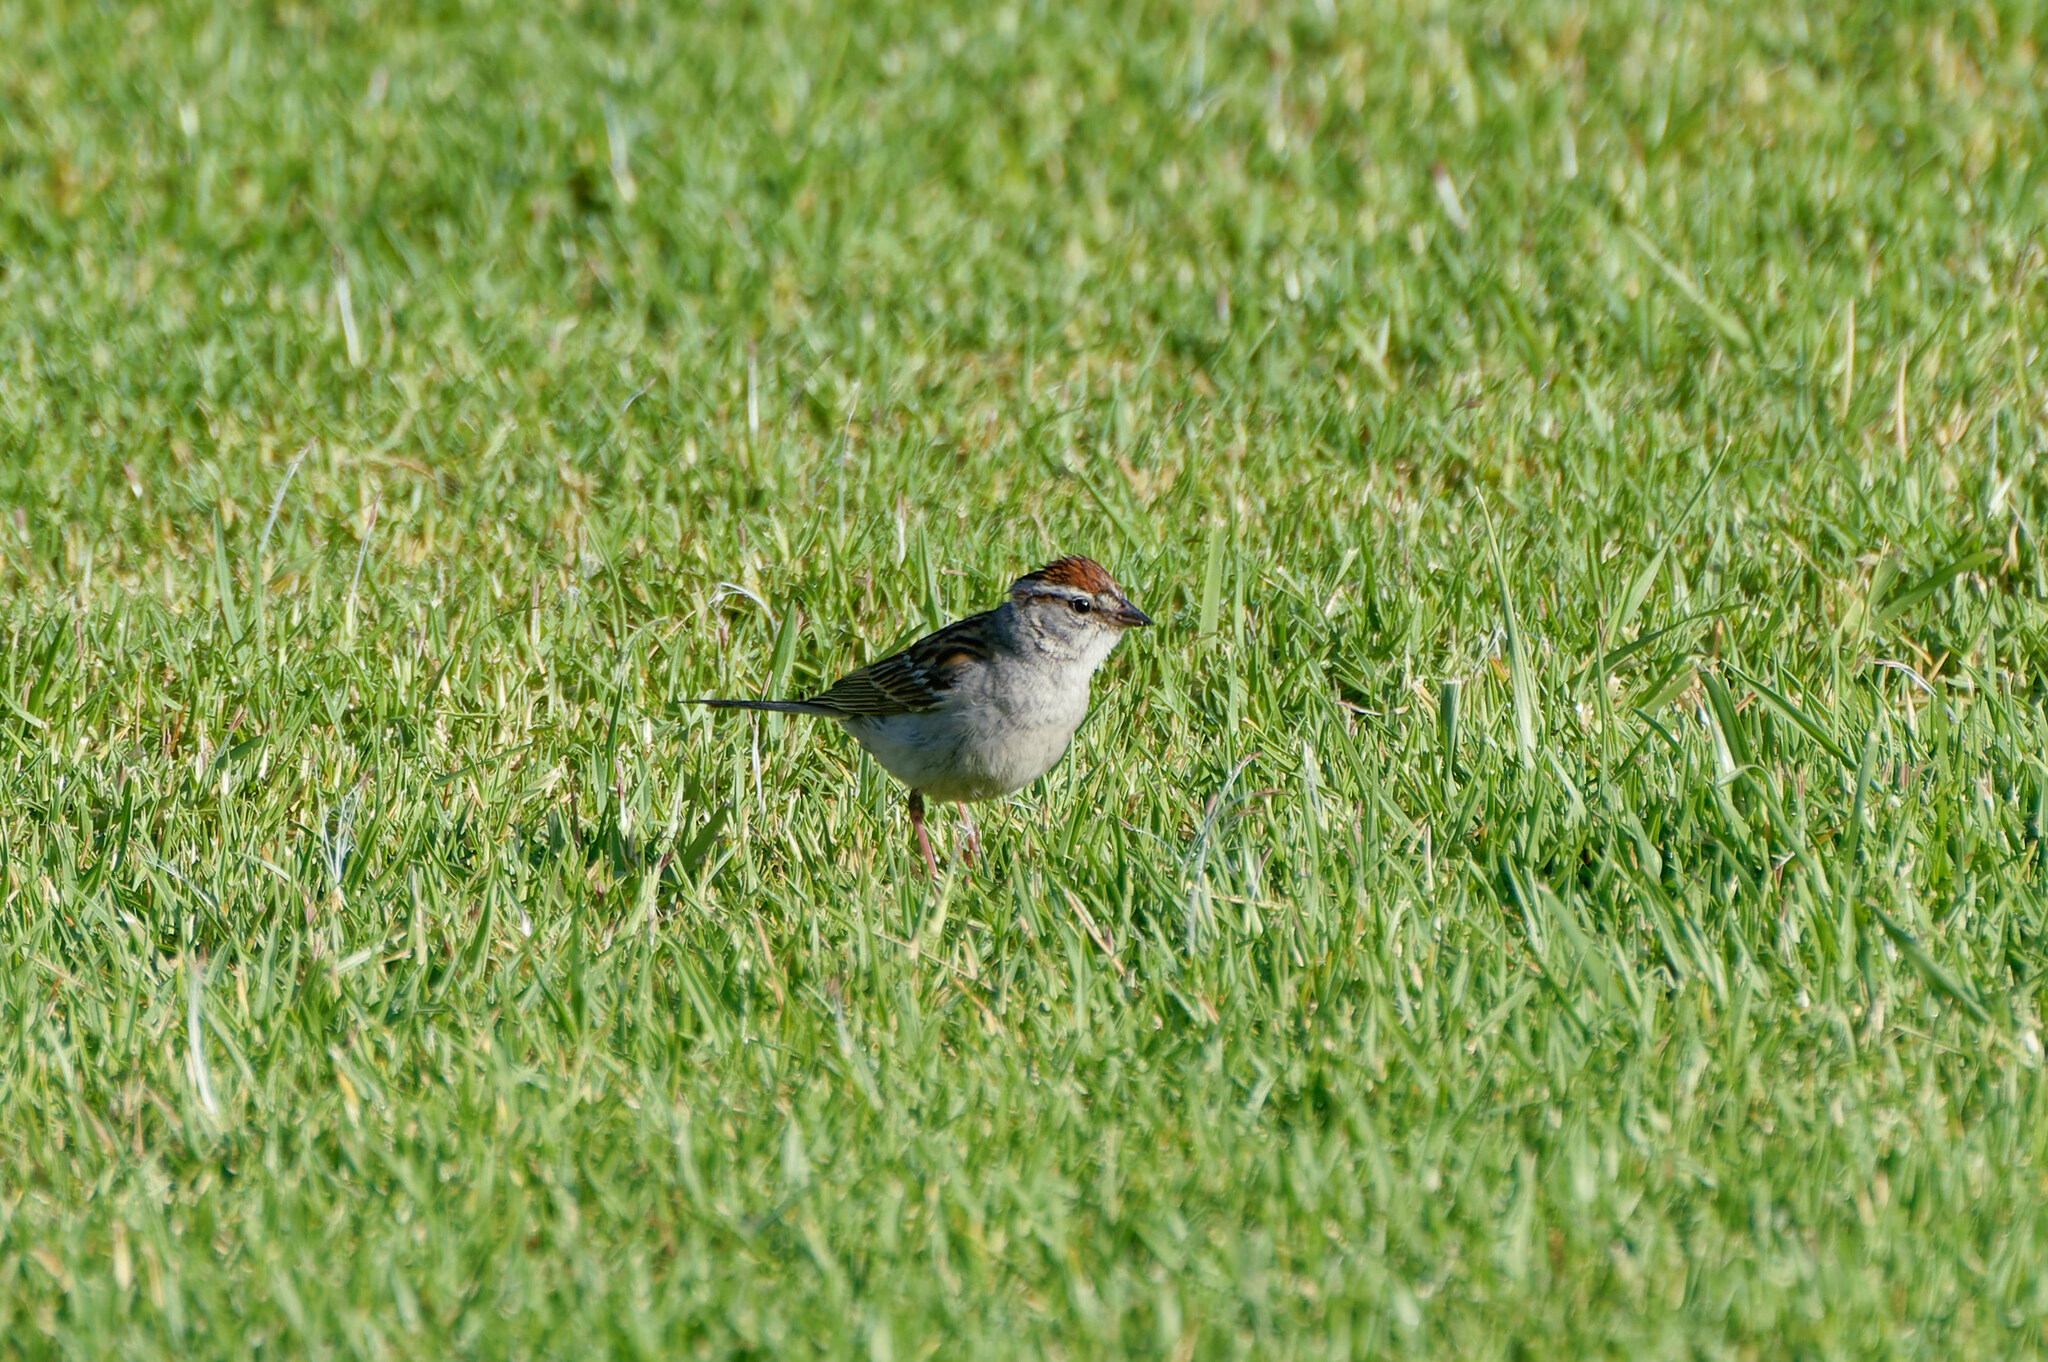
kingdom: Animalia
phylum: Chordata
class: Aves
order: Passeriformes
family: Passerellidae
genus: Spizella
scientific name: Spizella passerina
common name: Chipping sparrow
